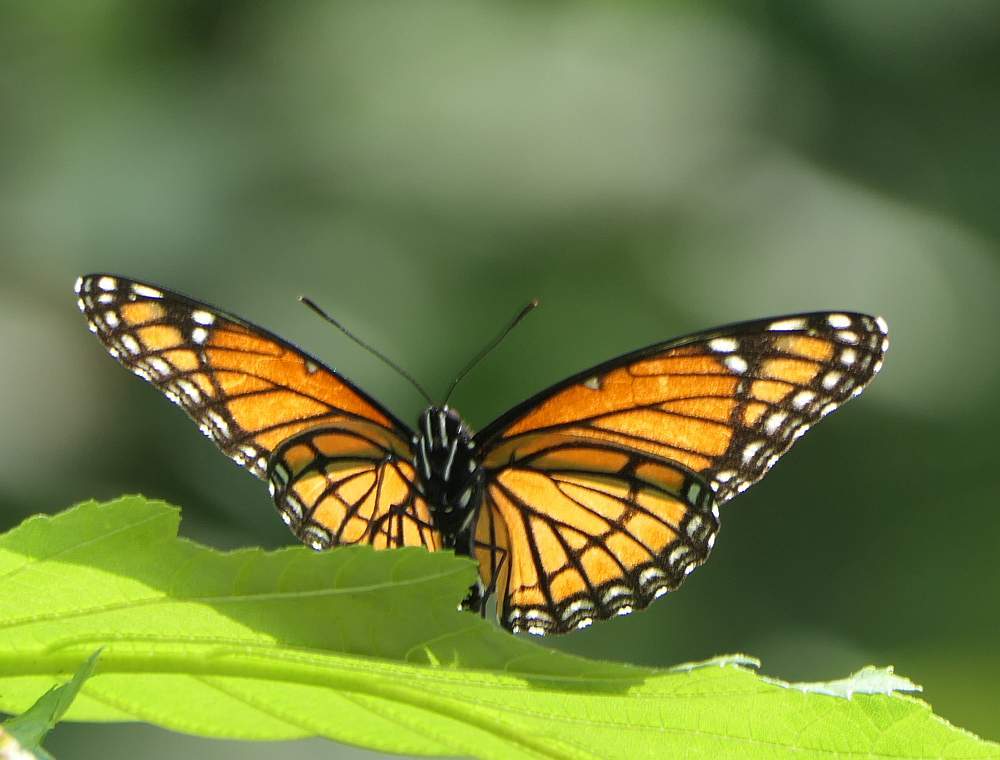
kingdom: Animalia
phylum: Arthropoda
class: Insecta
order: Lepidoptera
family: Nymphalidae
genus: Limenitis
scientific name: Limenitis archippus
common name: Viceroy
